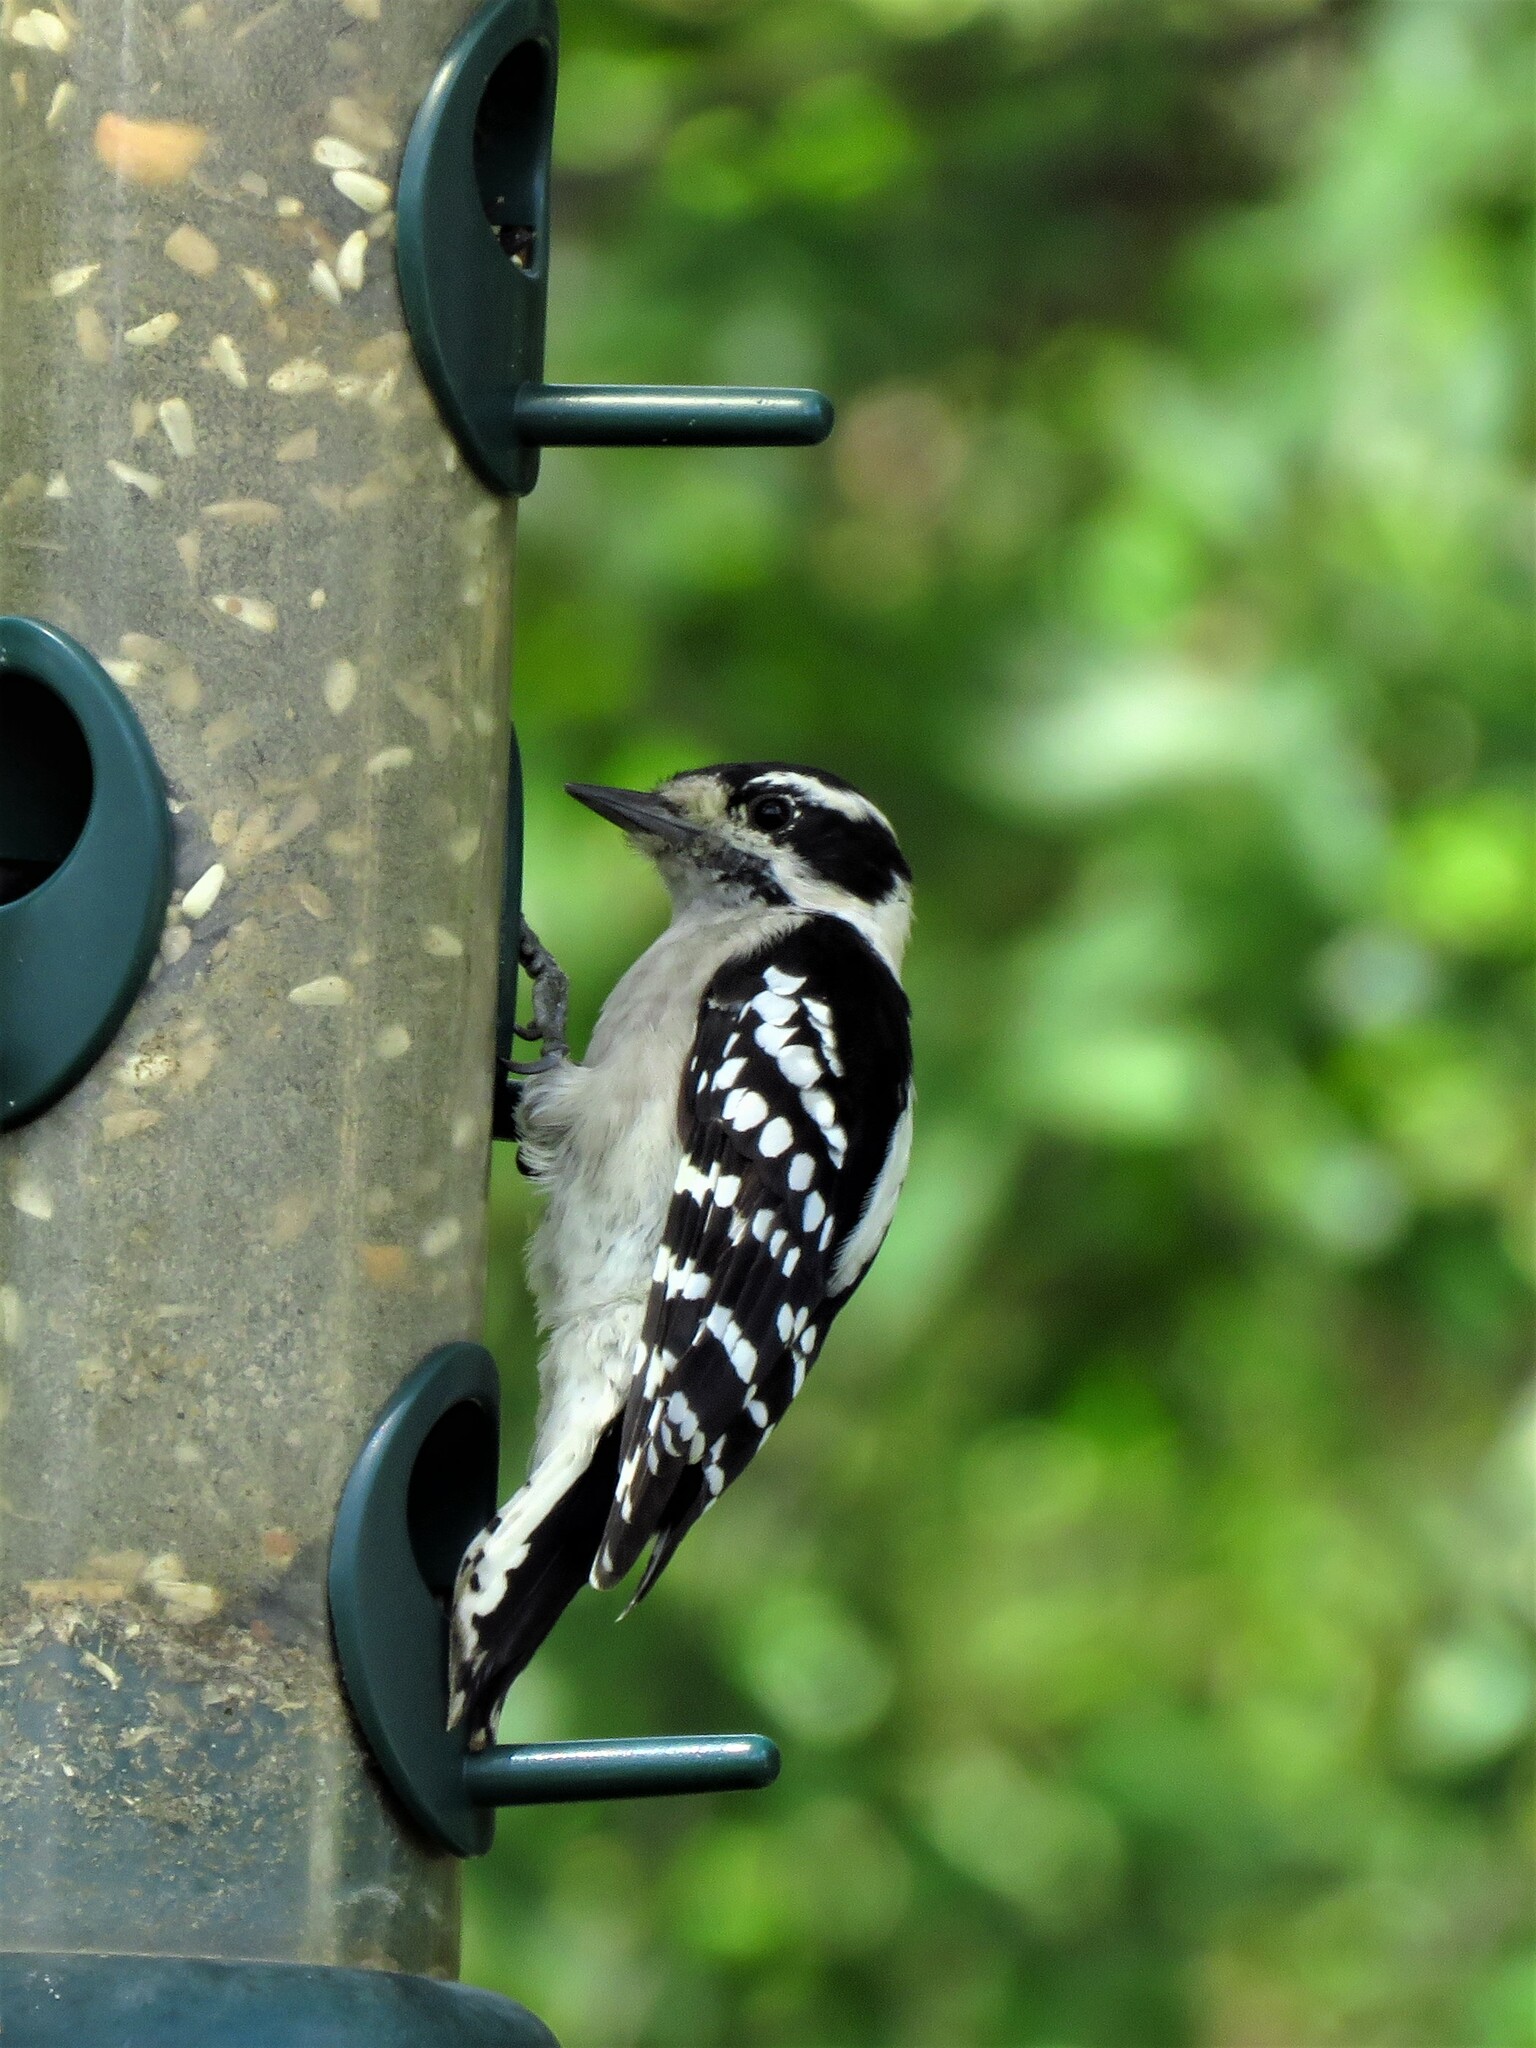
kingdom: Animalia
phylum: Chordata
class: Aves
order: Piciformes
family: Picidae
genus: Dryobates
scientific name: Dryobates pubescens
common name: Downy woodpecker
